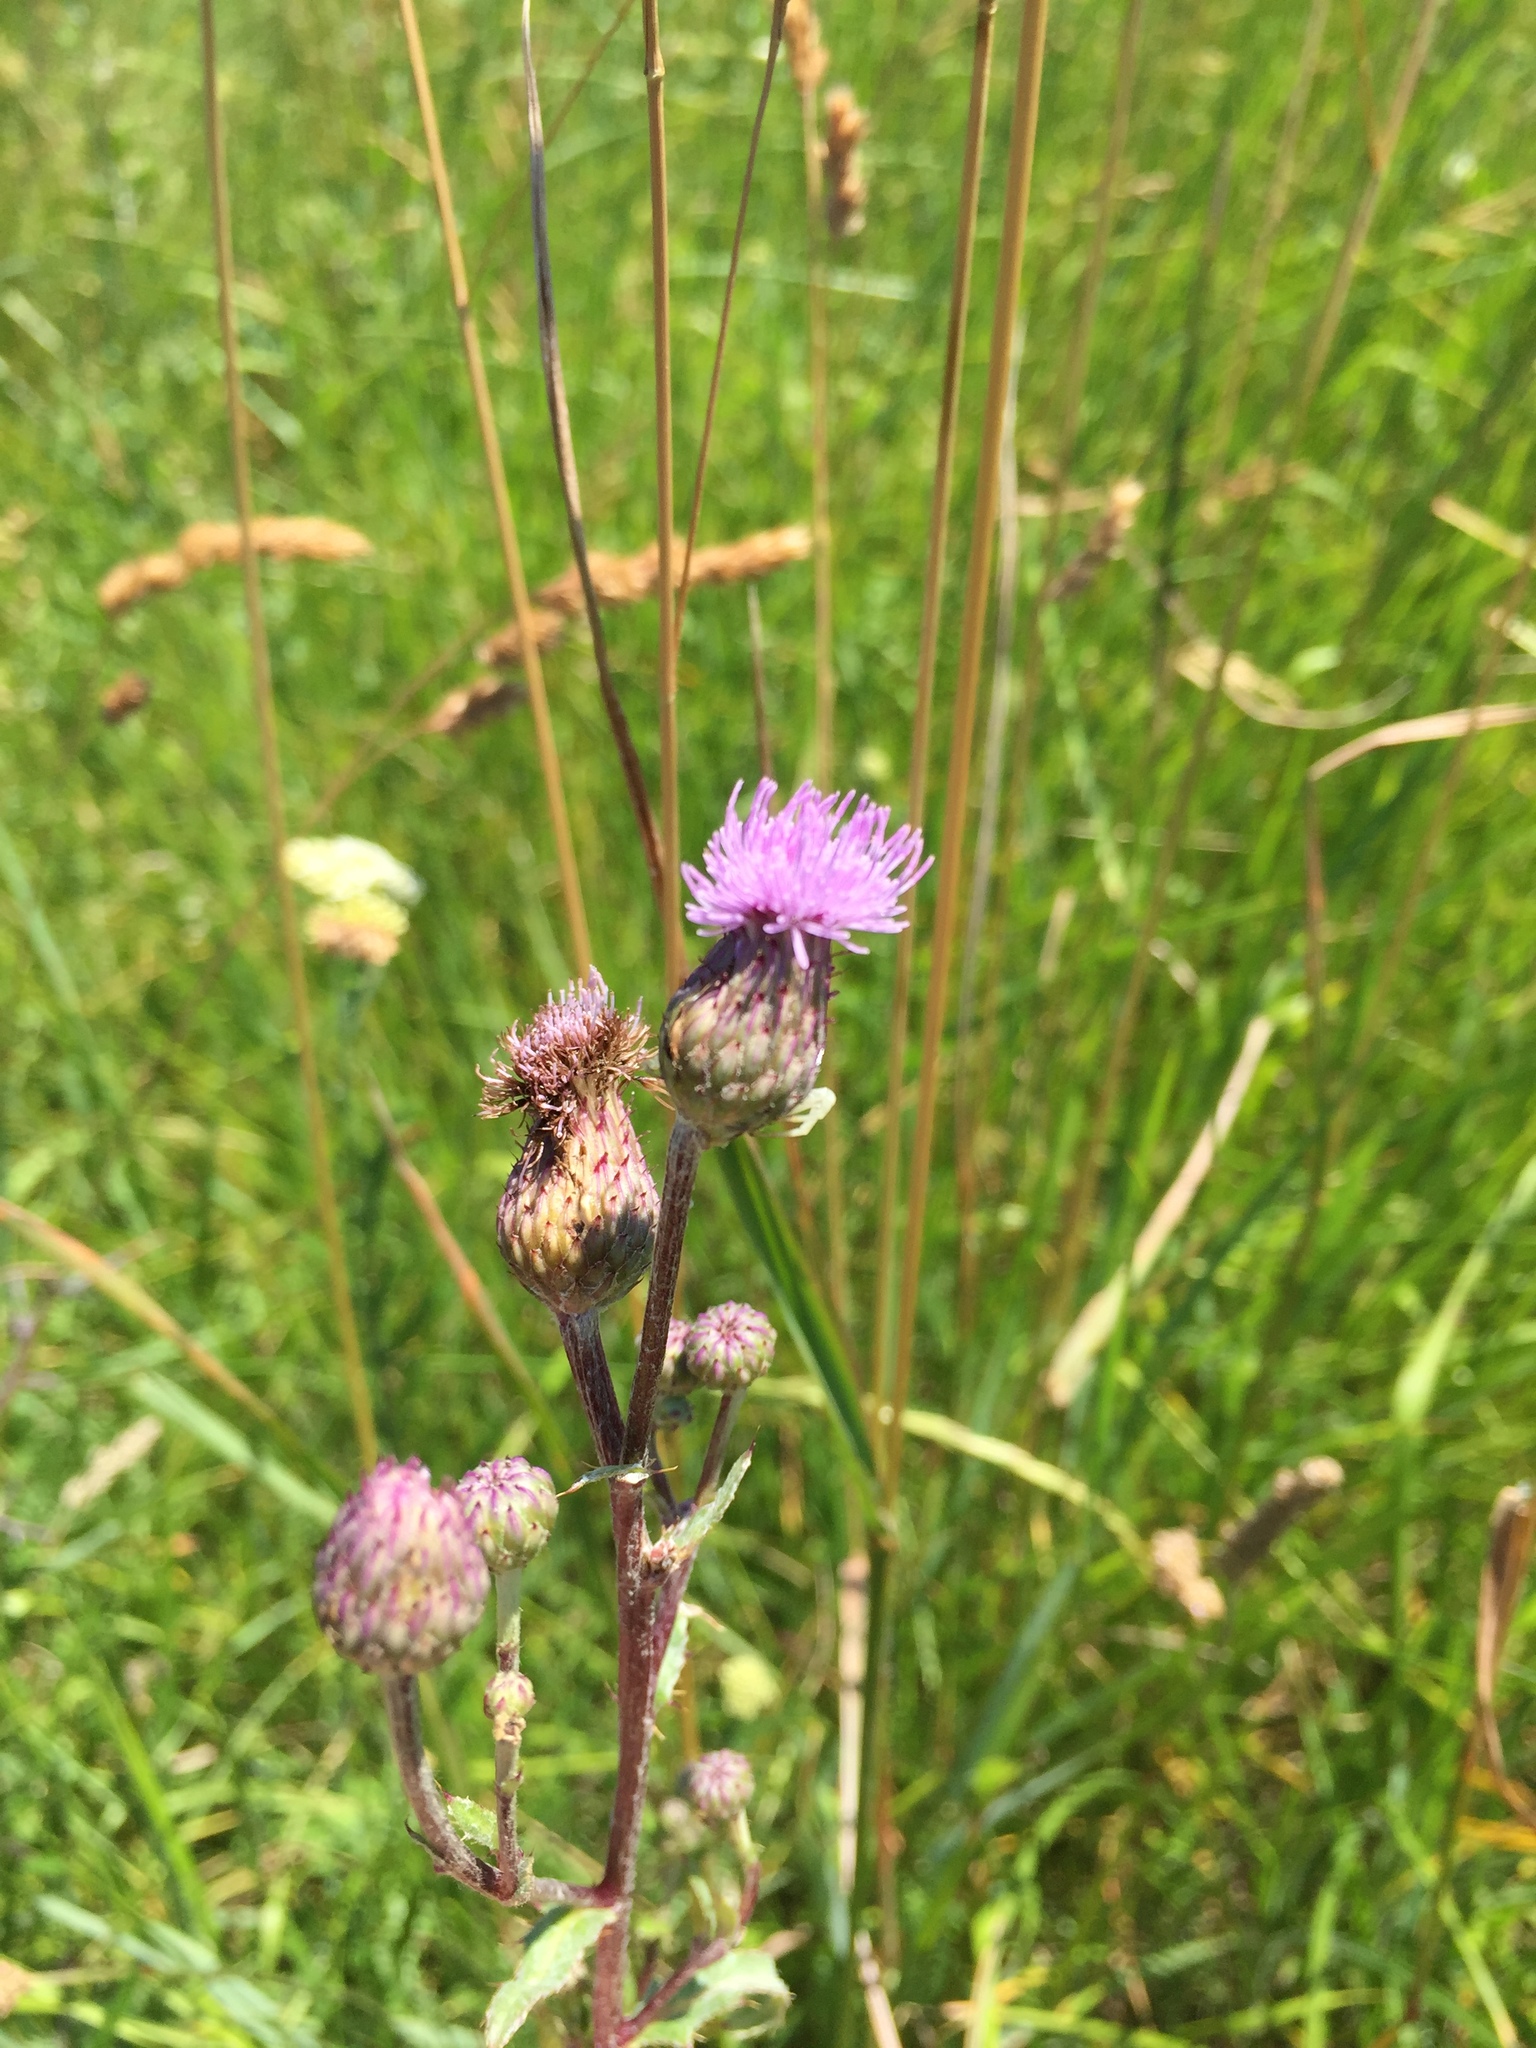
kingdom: Plantae
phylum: Tracheophyta
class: Magnoliopsida
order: Asterales
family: Asteraceae
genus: Cirsium
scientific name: Cirsium arvense
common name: Creeping thistle
